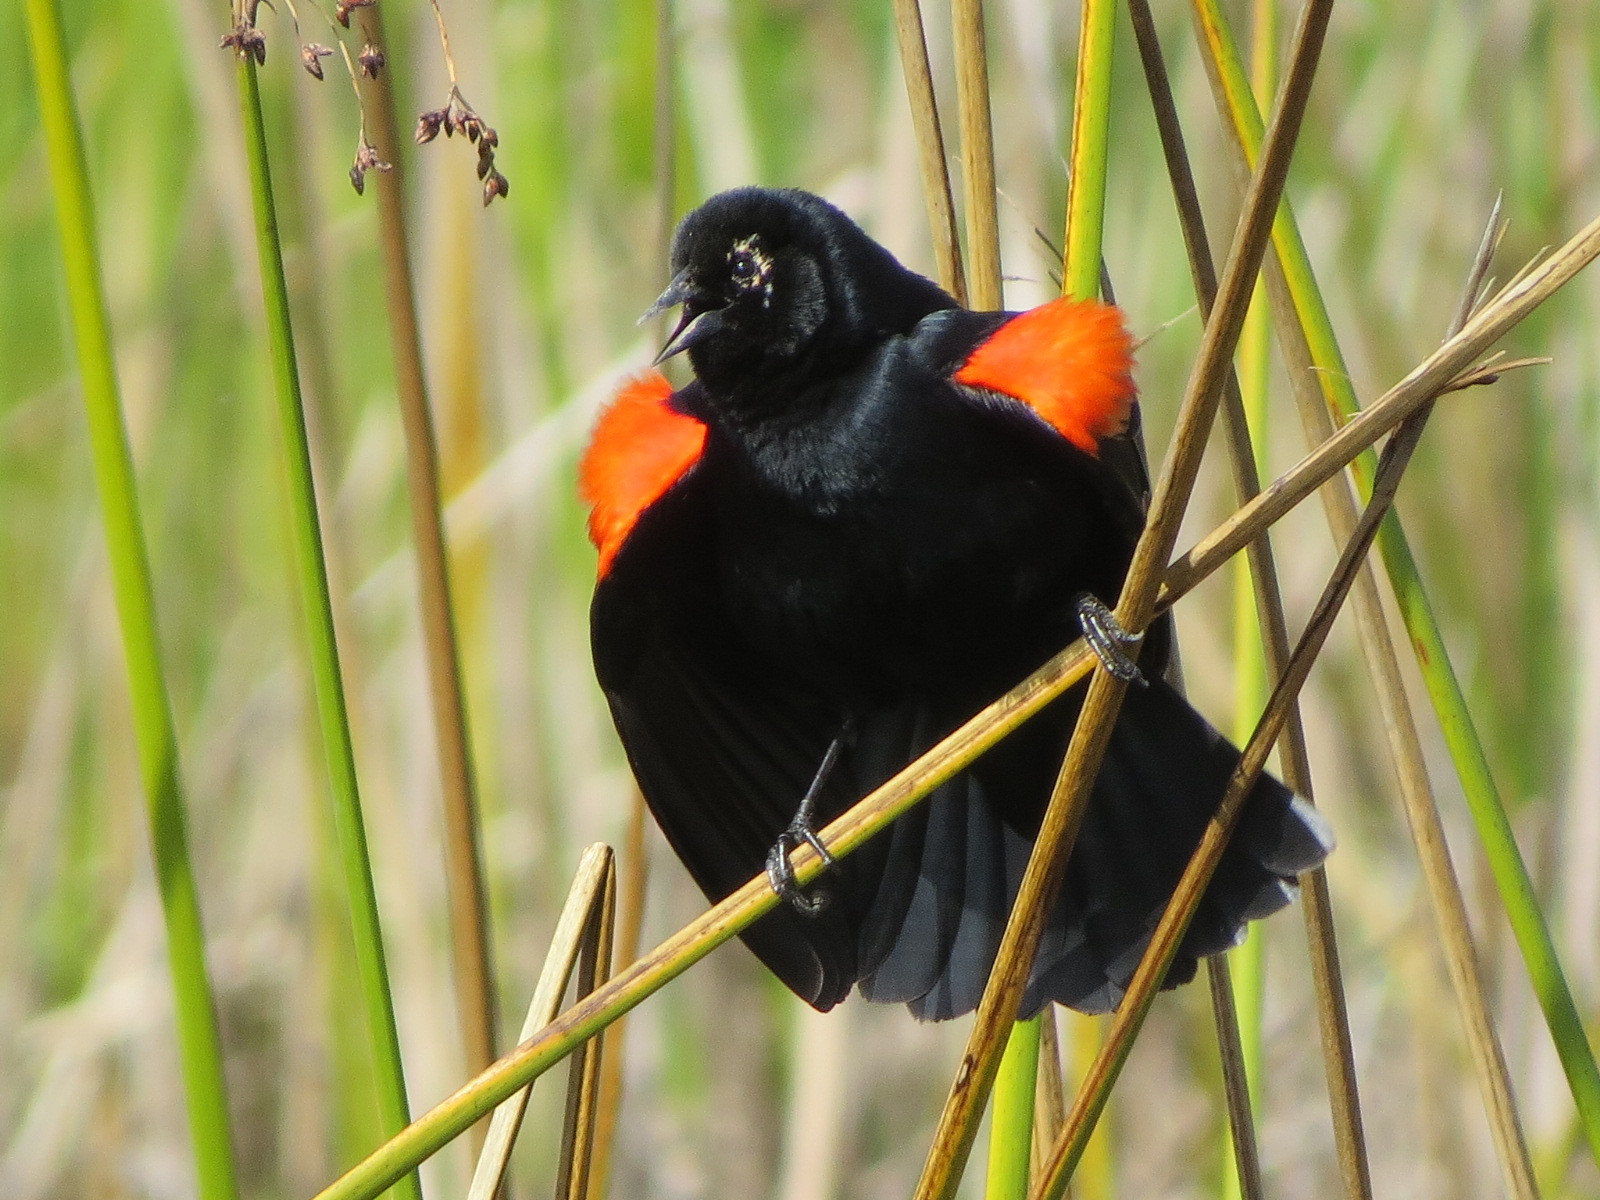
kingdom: Animalia
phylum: Chordata
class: Aves
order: Passeriformes
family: Icteridae
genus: Agelaius
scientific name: Agelaius phoeniceus
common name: Red-winged blackbird
